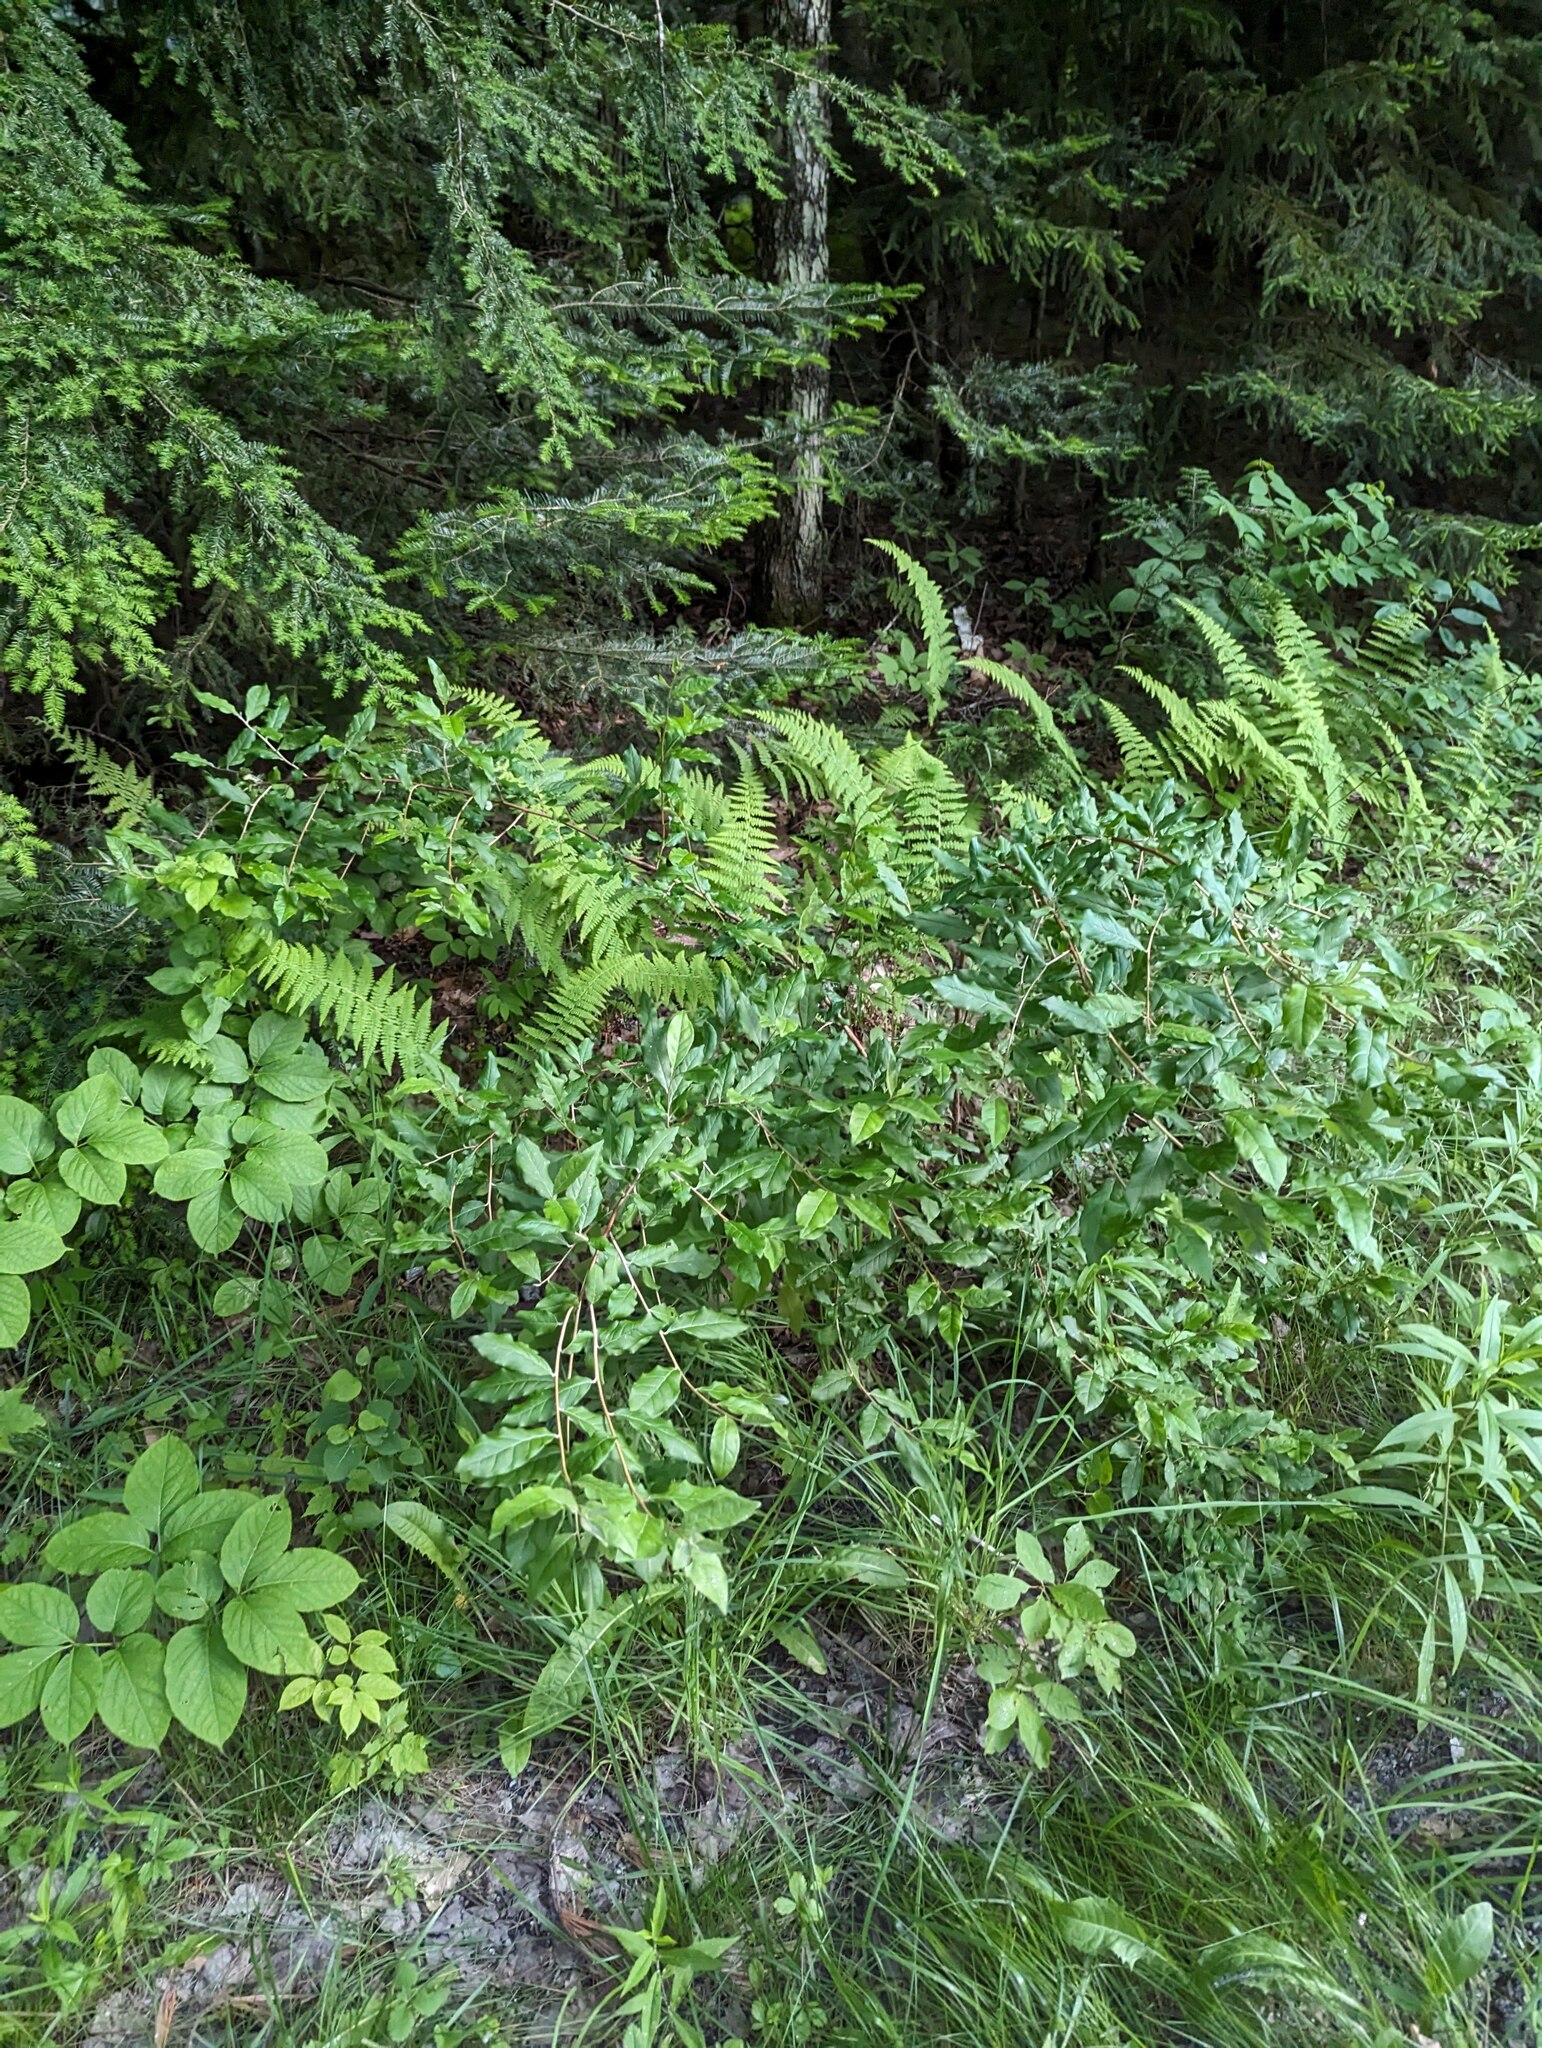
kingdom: Plantae
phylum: Tracheophyta
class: Magnoliopsida
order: Rosales
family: Elaeagnaceae
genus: Elaeagnus
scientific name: Elaeagnus umbellata
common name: Autumn olive
